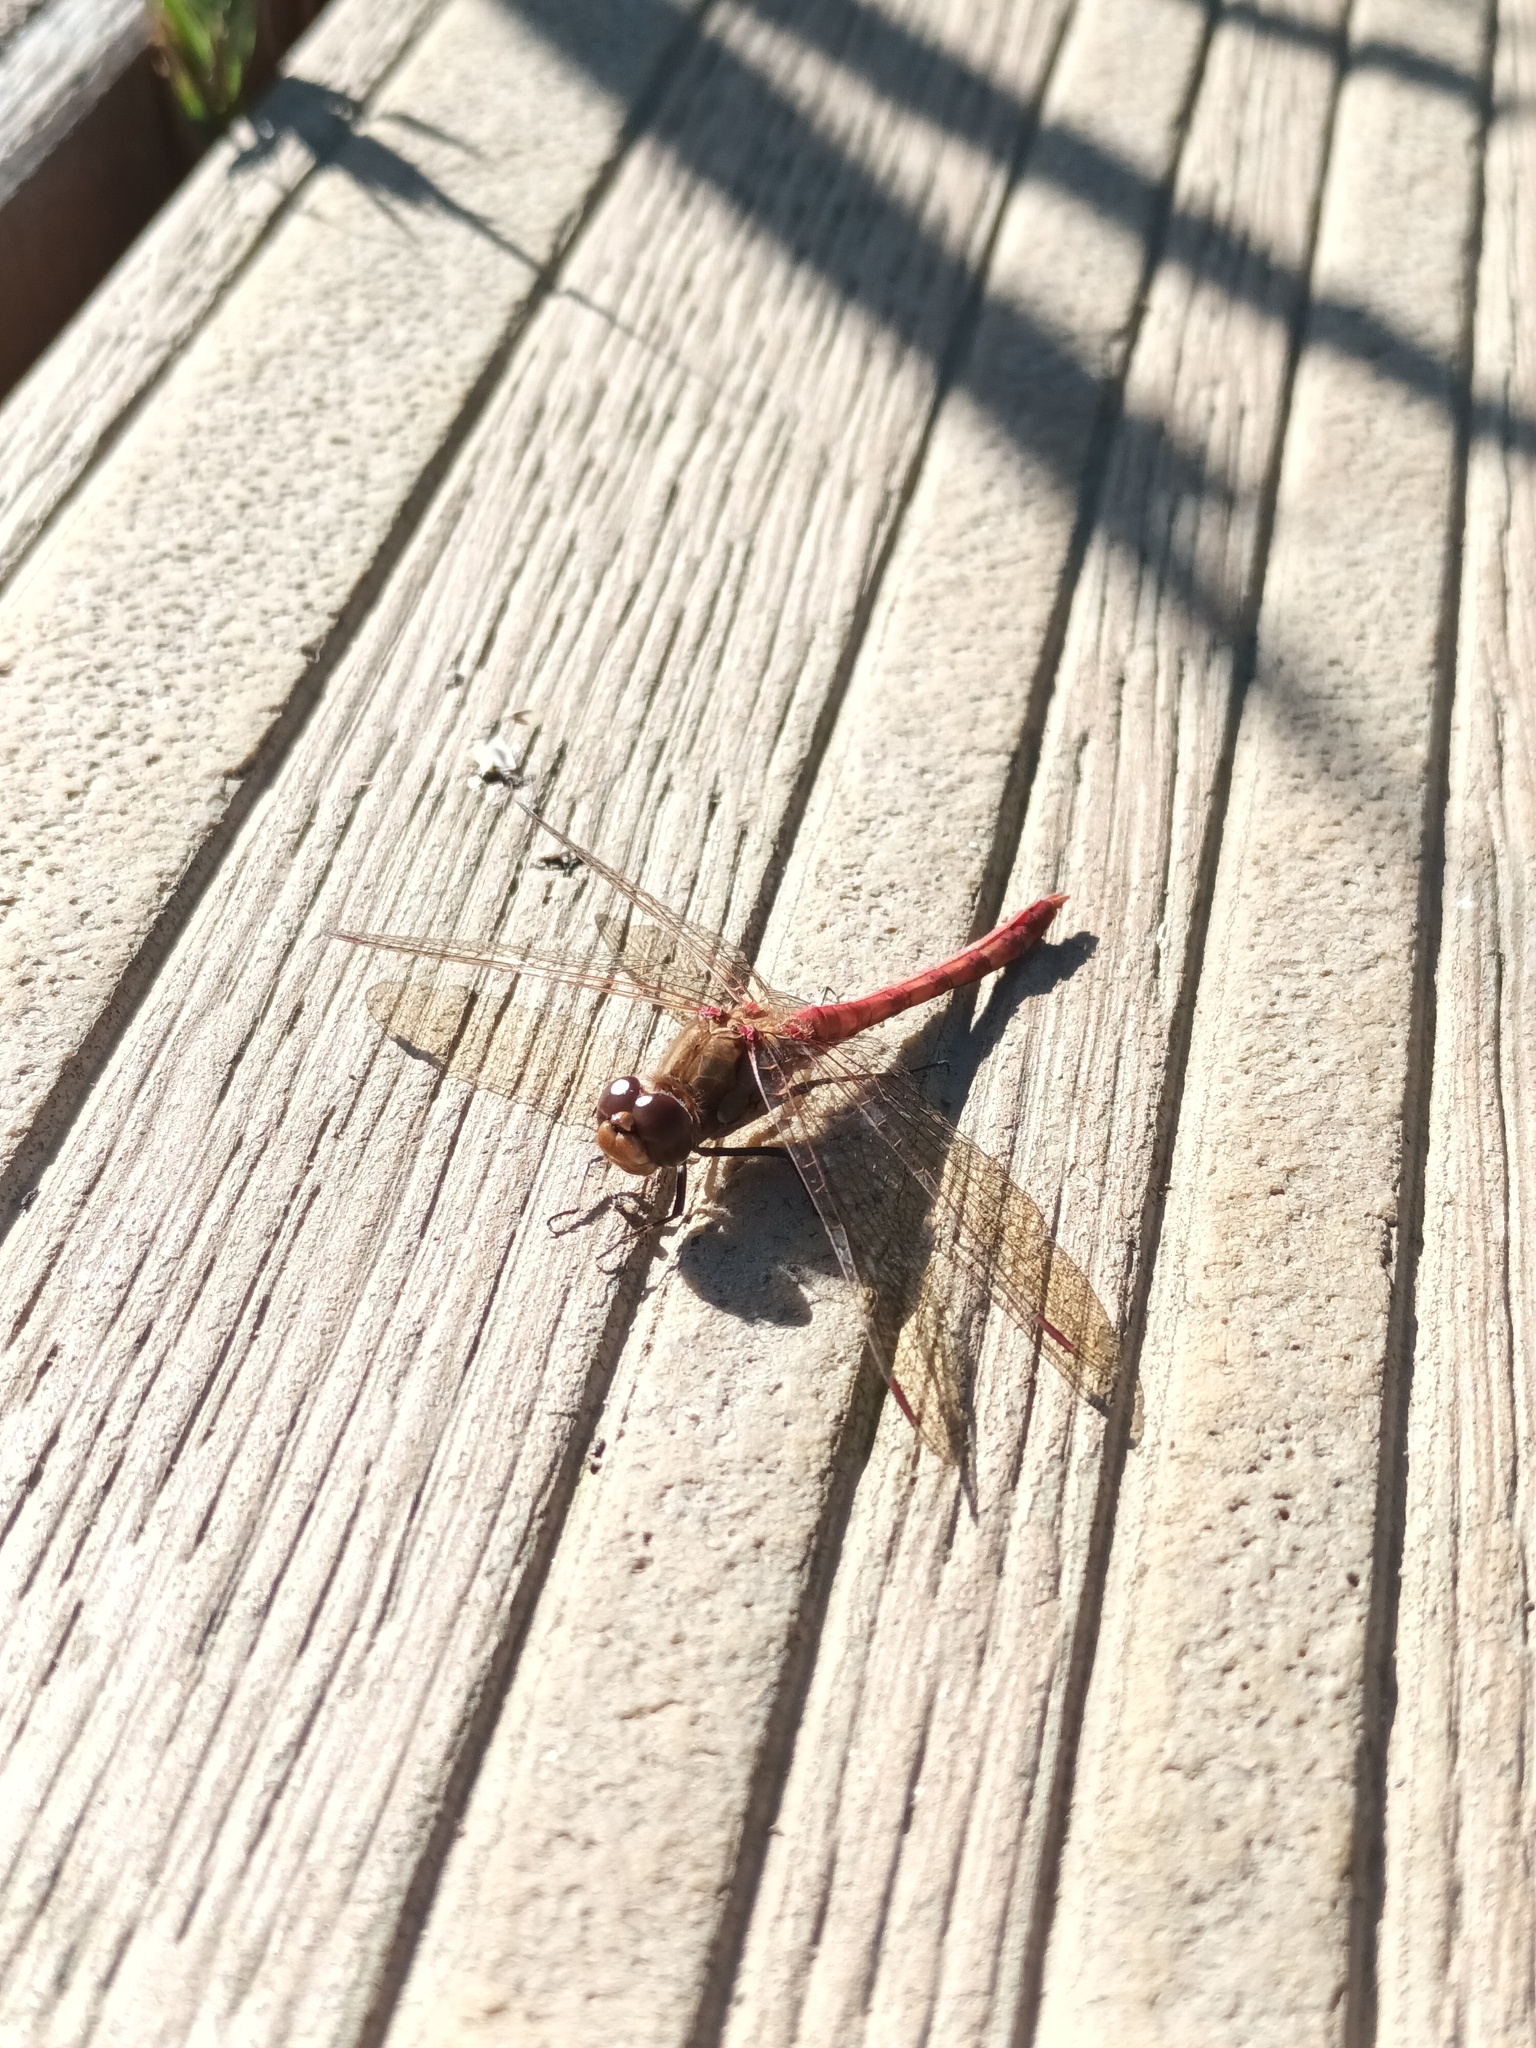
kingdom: Animalia
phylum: Arthropoda
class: Insecta
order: Odonata
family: Libellulidae
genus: Sympetrum
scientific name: Sympetrum striolatum
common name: Common darter
